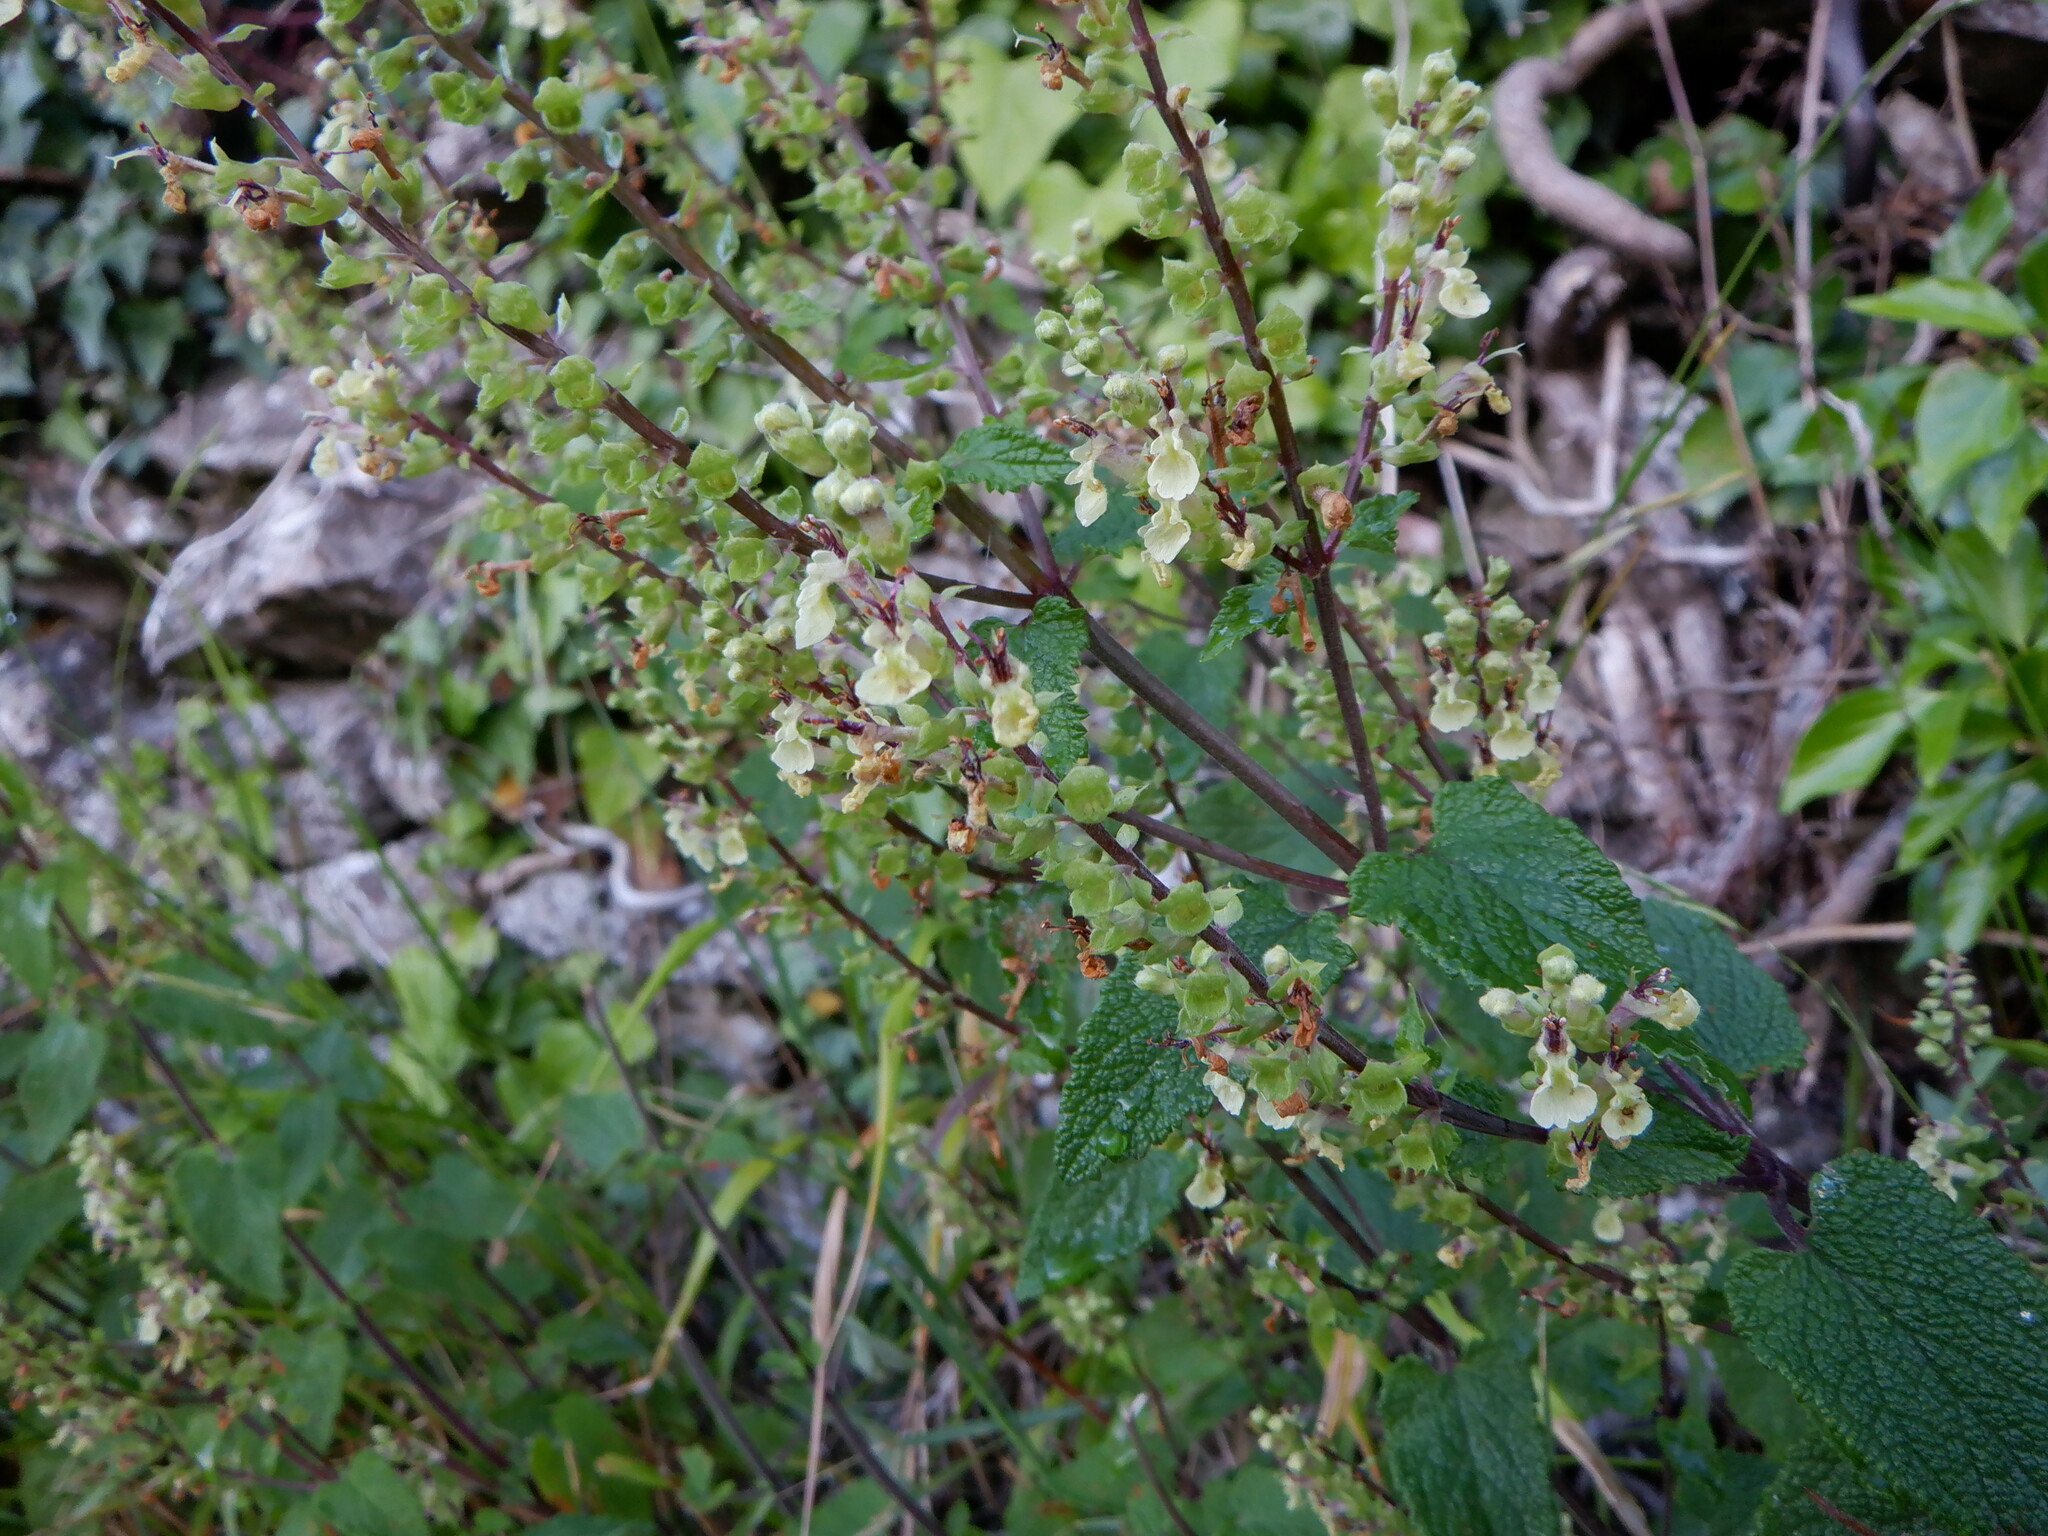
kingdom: Plantae
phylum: Tracheophyta
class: Magnoliopsida
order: Lamiales
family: Lamiaceae
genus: Teucrium
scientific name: Teucrium scorodonia
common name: Woodland germander
